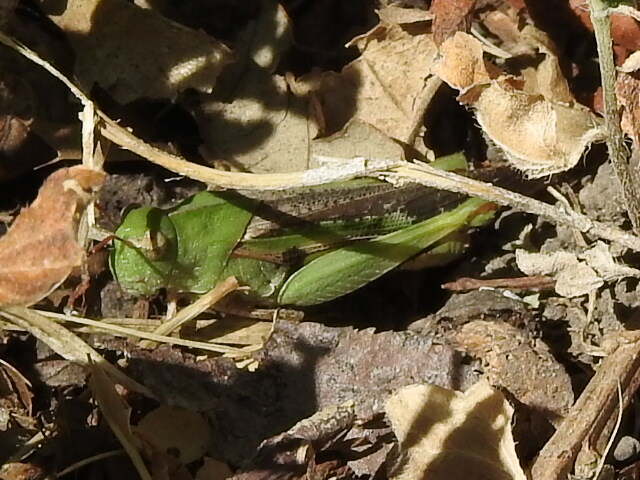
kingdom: Animalia
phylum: Arthropoda
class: Insecta
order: Orthoptera
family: Acrididae
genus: Chortophaga
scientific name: Chortophaga viridifasciata
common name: Green-striped grasshopper
